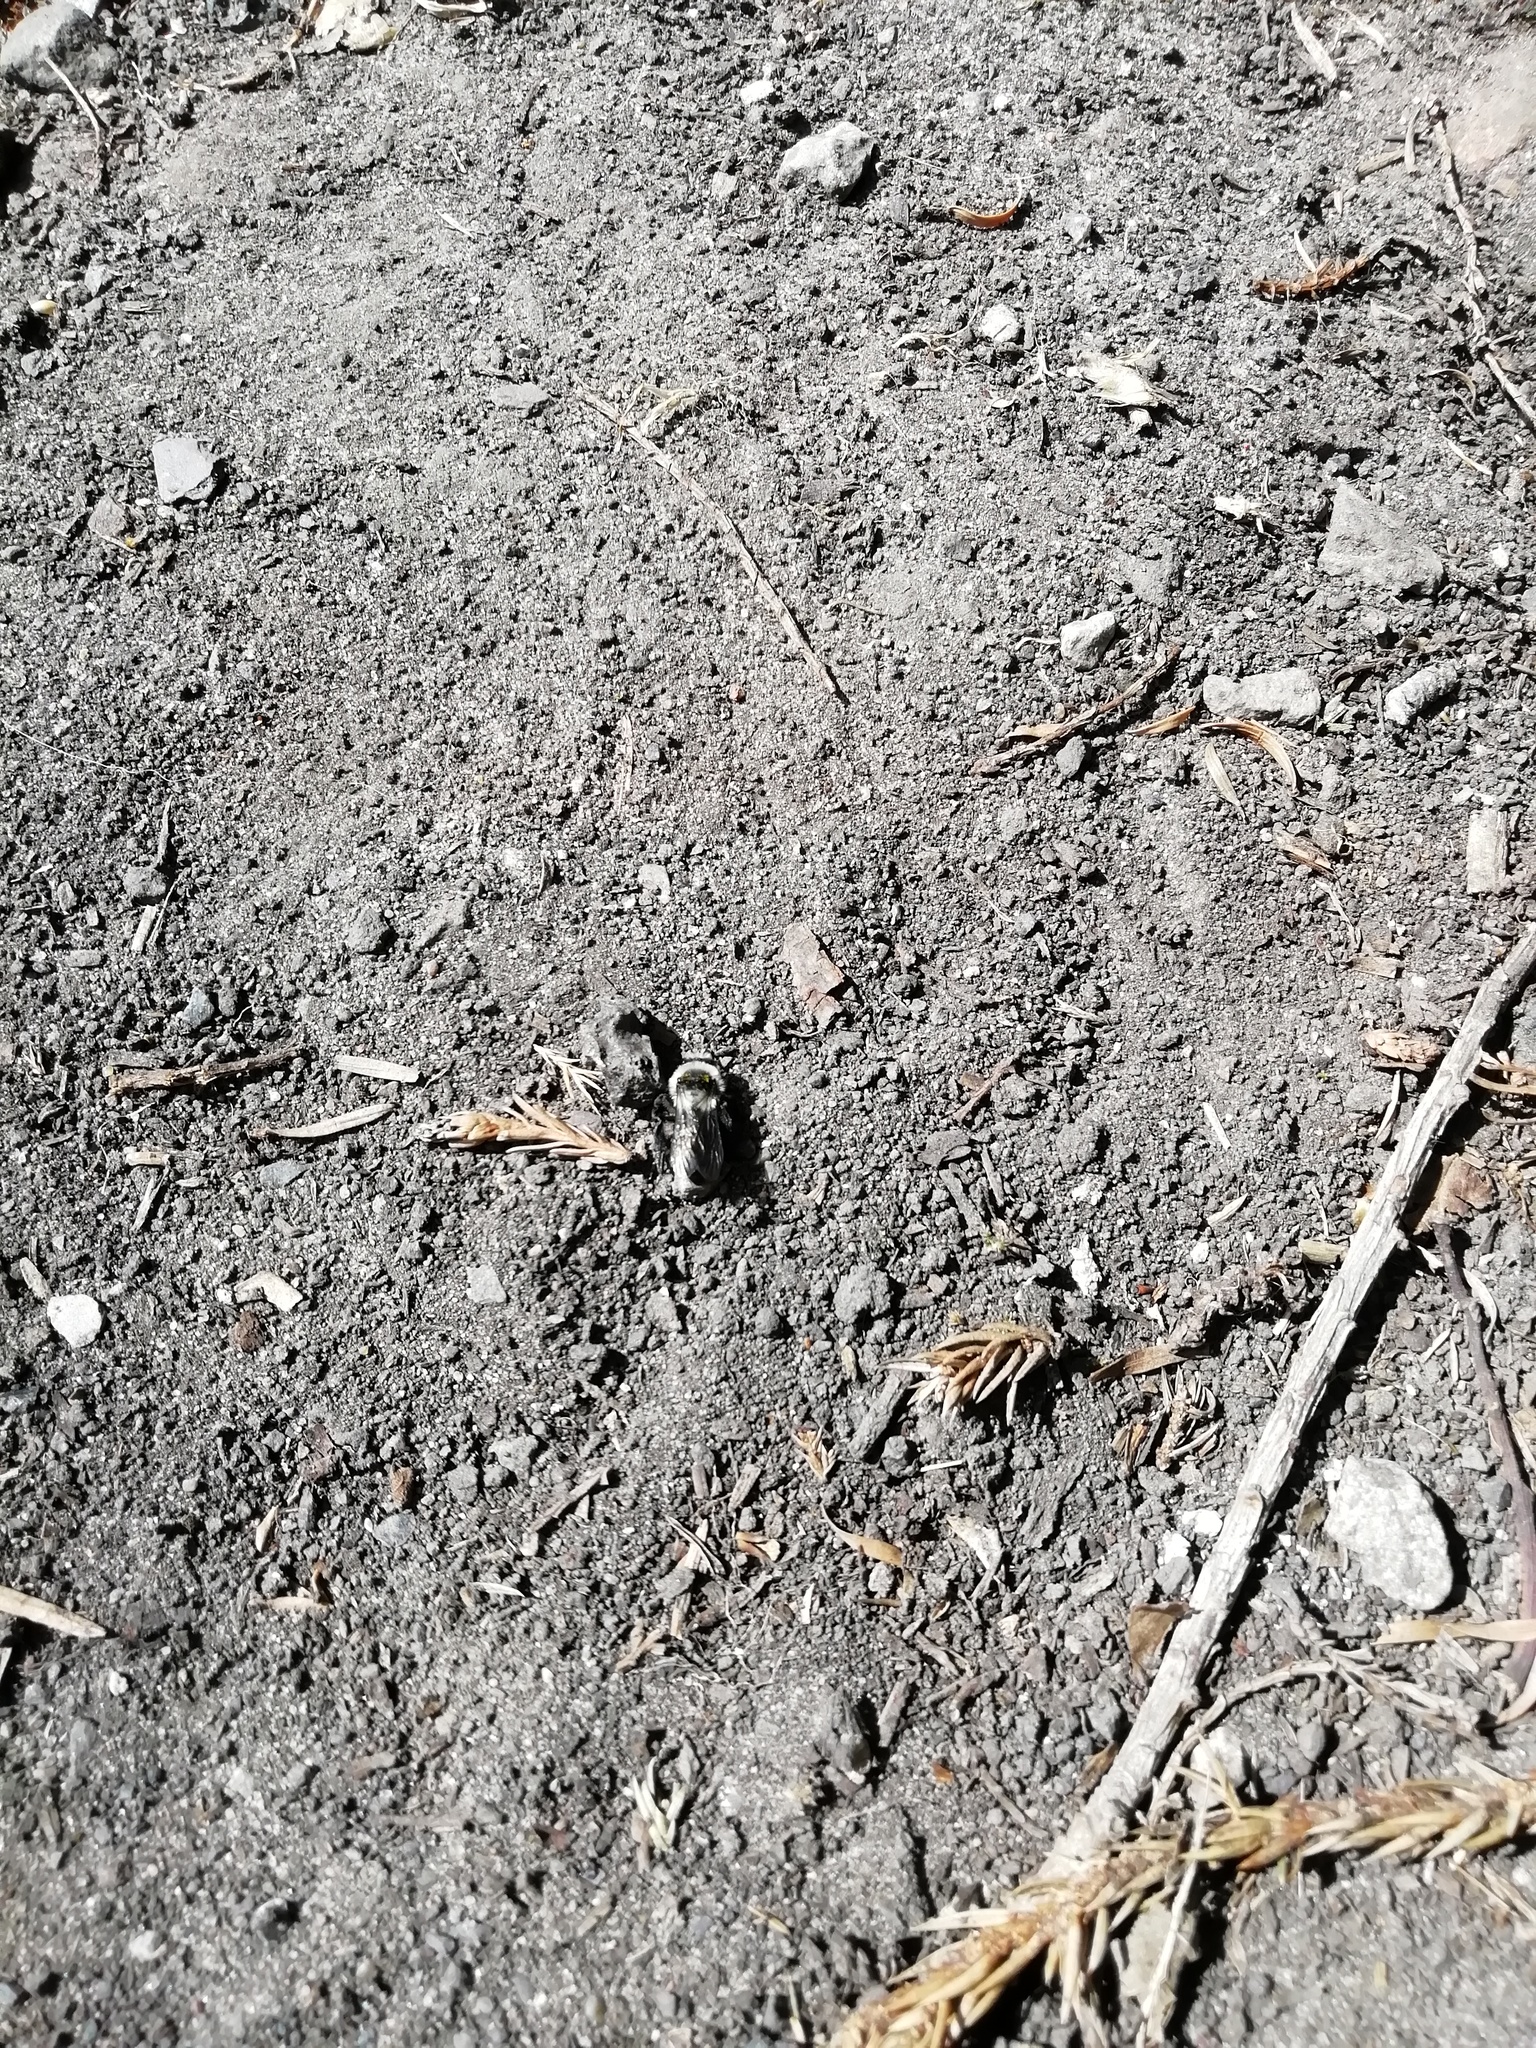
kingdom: Animalia
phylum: Arthropoda
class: Insecta
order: Hymenoptera
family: Andrenidae
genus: Andrena
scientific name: Andrena cineraria
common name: Ashy mining bee
